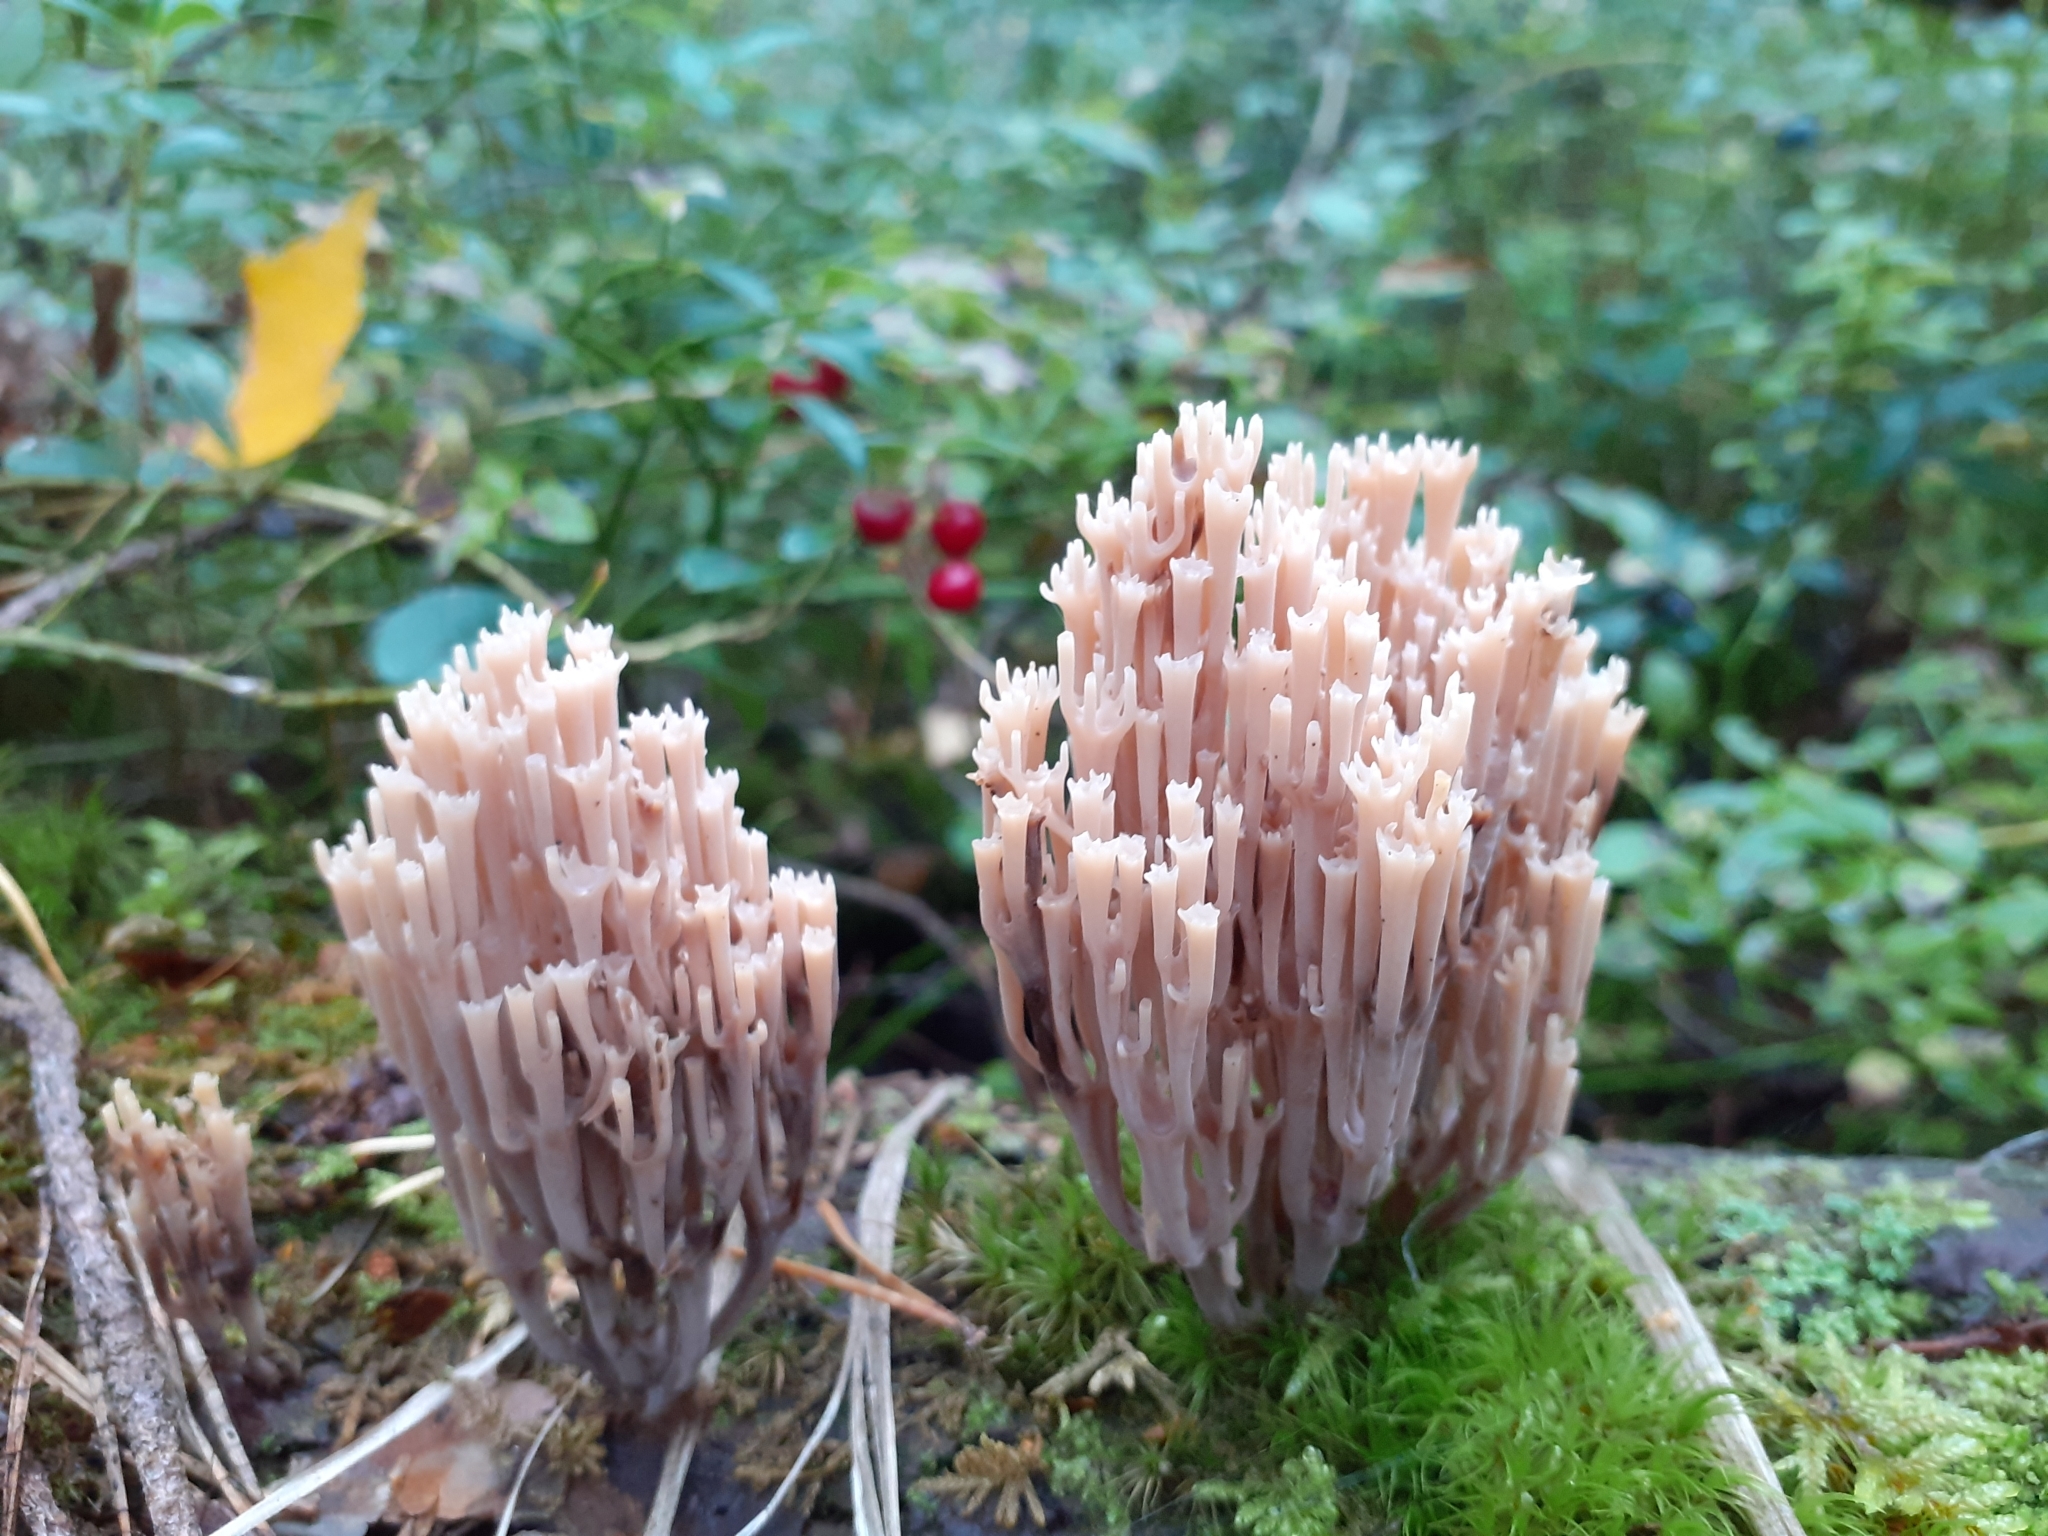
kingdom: Fungi
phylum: Basidiomycota
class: Agaricomycetes
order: Russulales
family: Auriscalpiaceae
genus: Artomyces
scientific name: Artomyces pyxidatus
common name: Crown-tipped coral fungus
